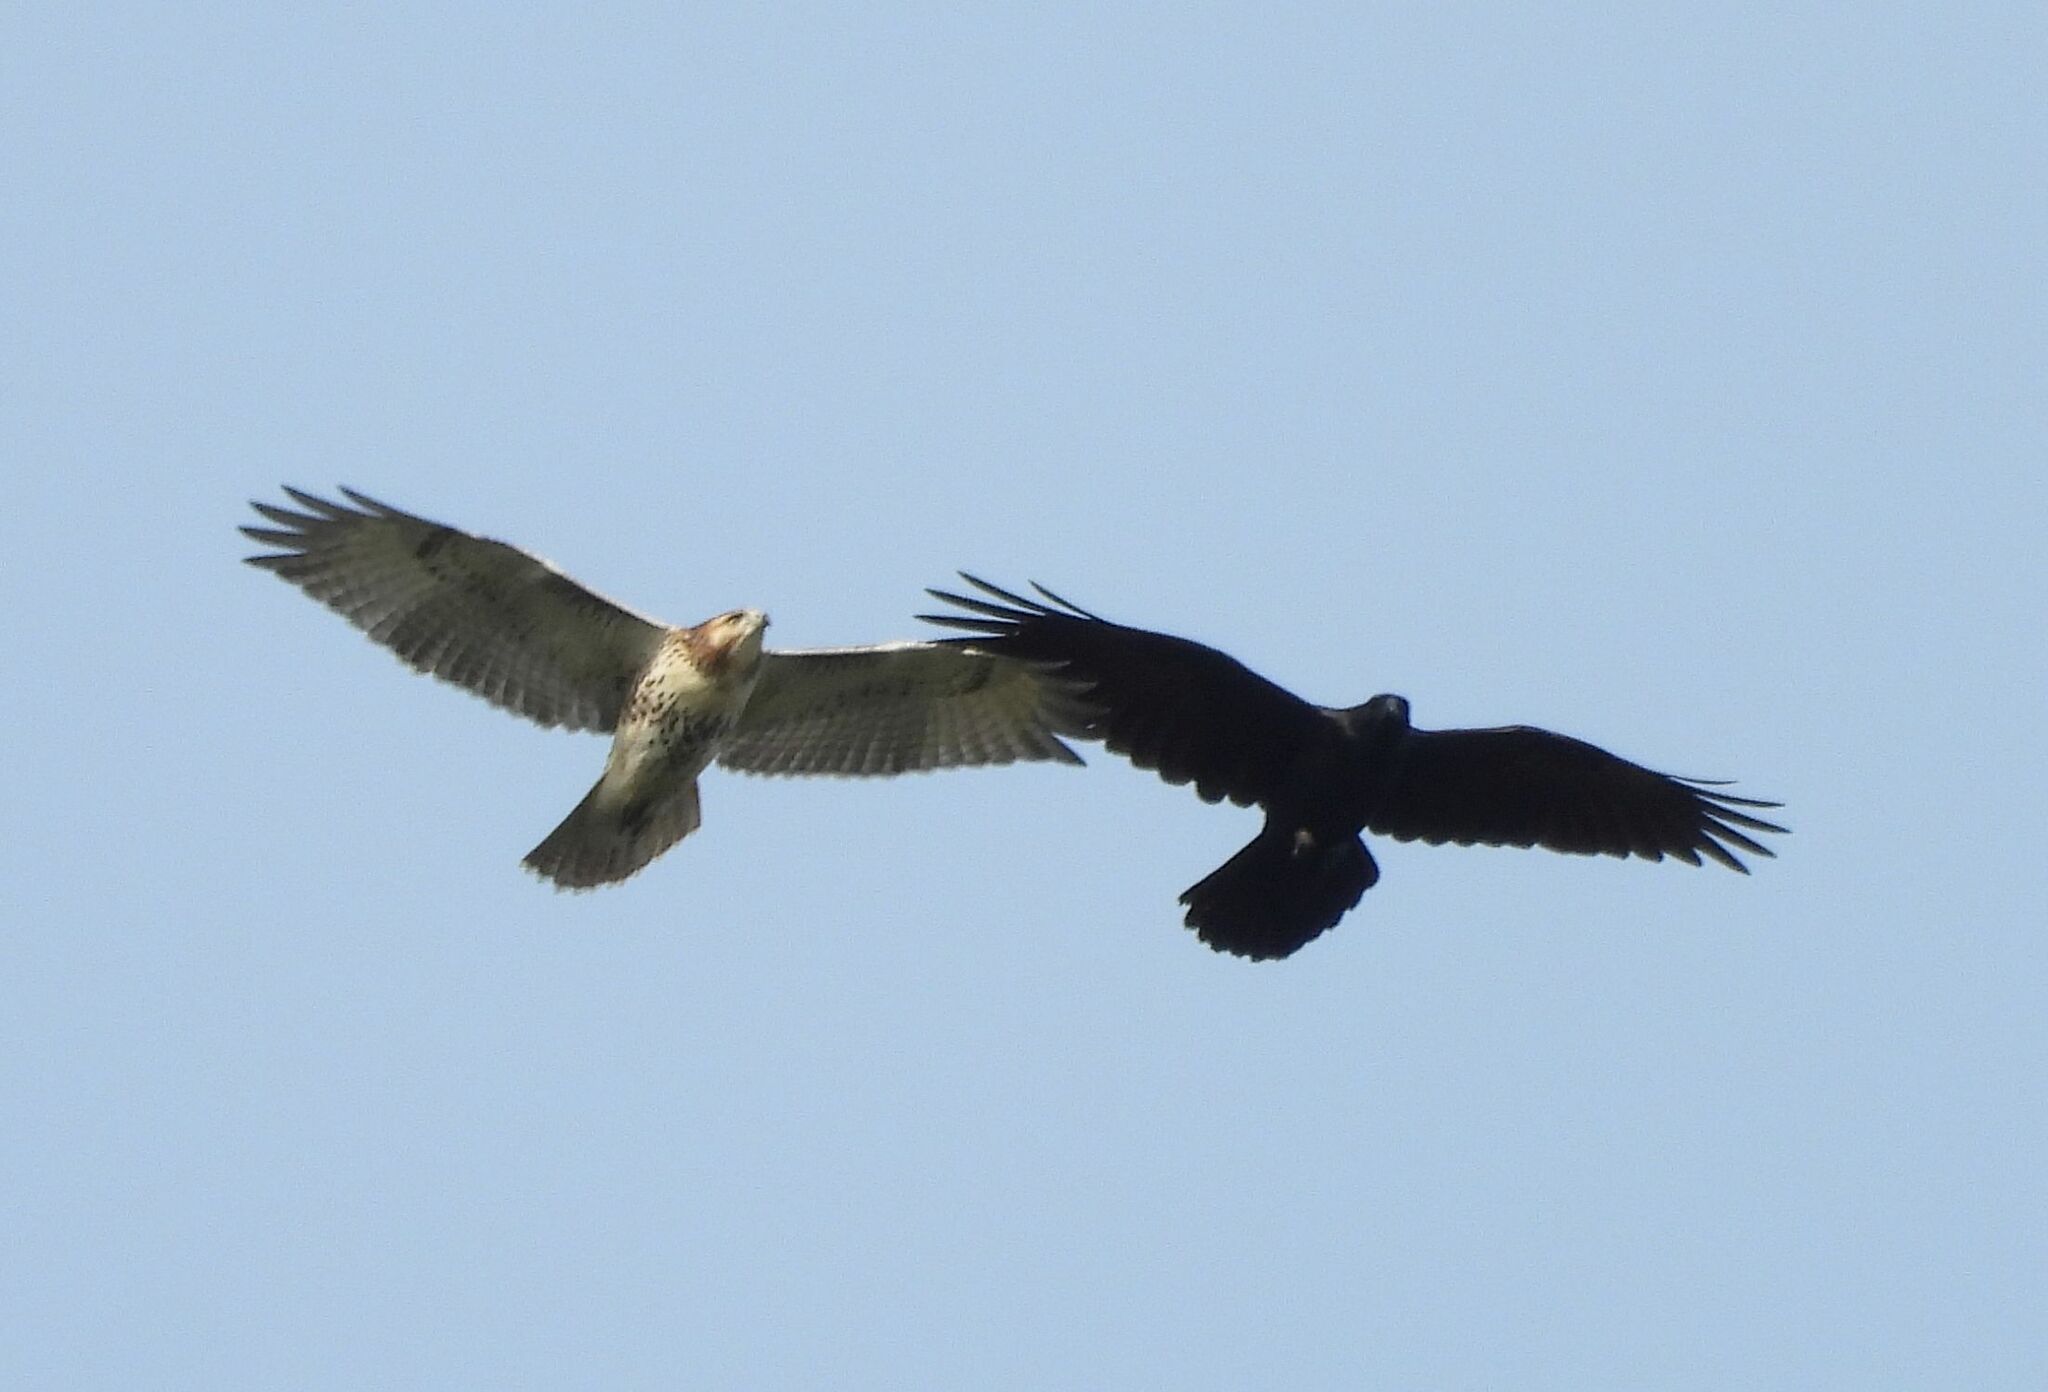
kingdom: Animalia
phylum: Chordata
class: Aves
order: Accipitriformes
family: Accipitridae
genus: Buteo
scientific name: Buteo jamaicensis
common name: Red-tailed hawk
